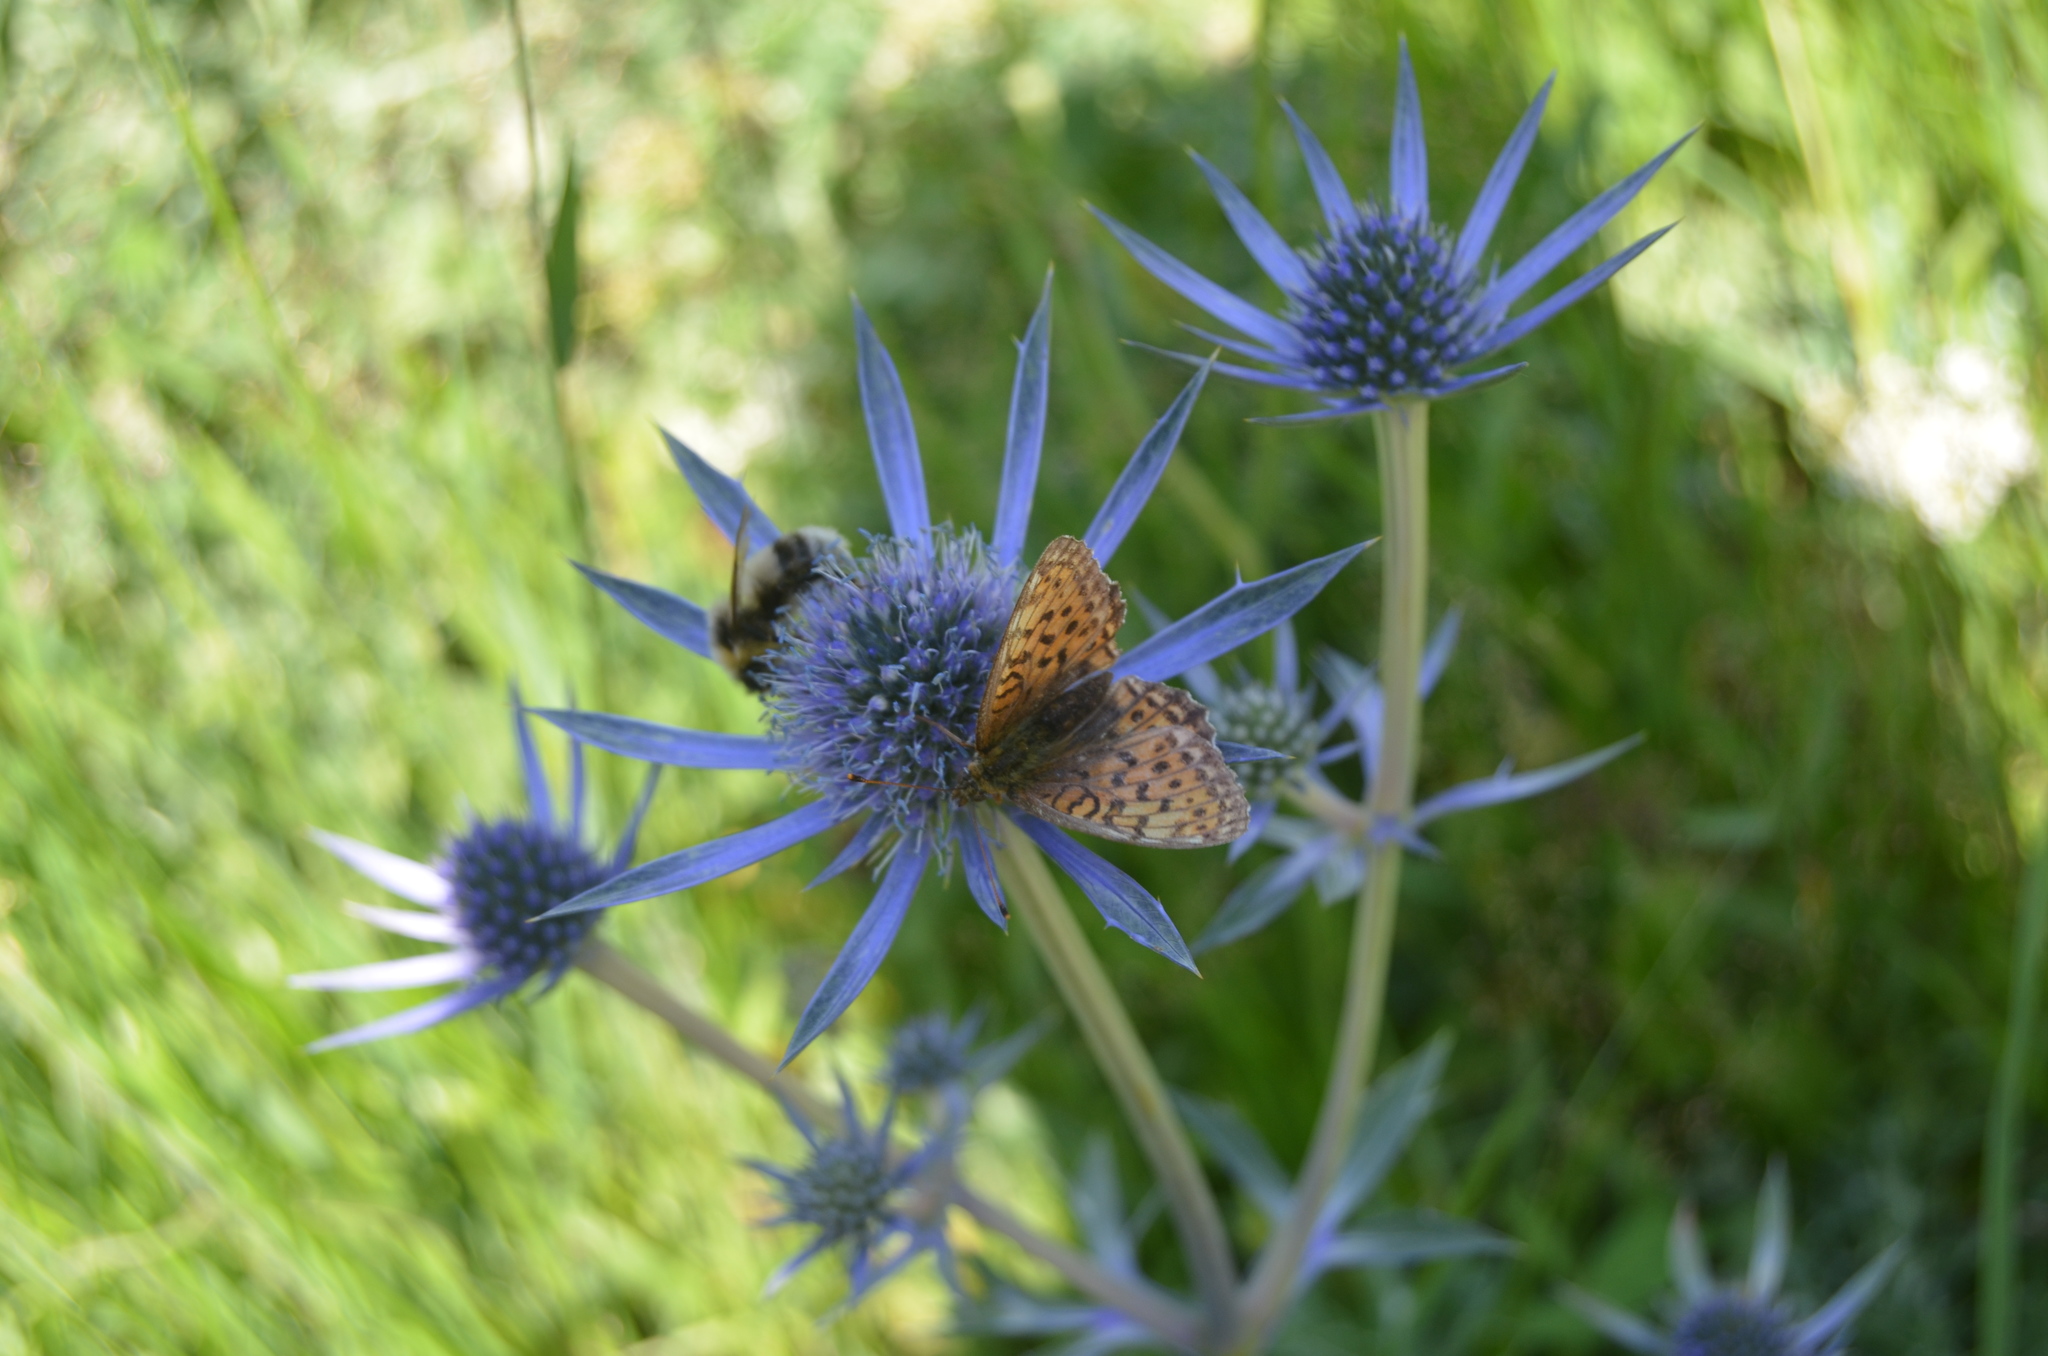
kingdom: Plantae
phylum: Tracheophyta
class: Magnoliopsida
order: Apiales
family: Apiaceae
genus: Eryngium
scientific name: Eryngium bourgatii
